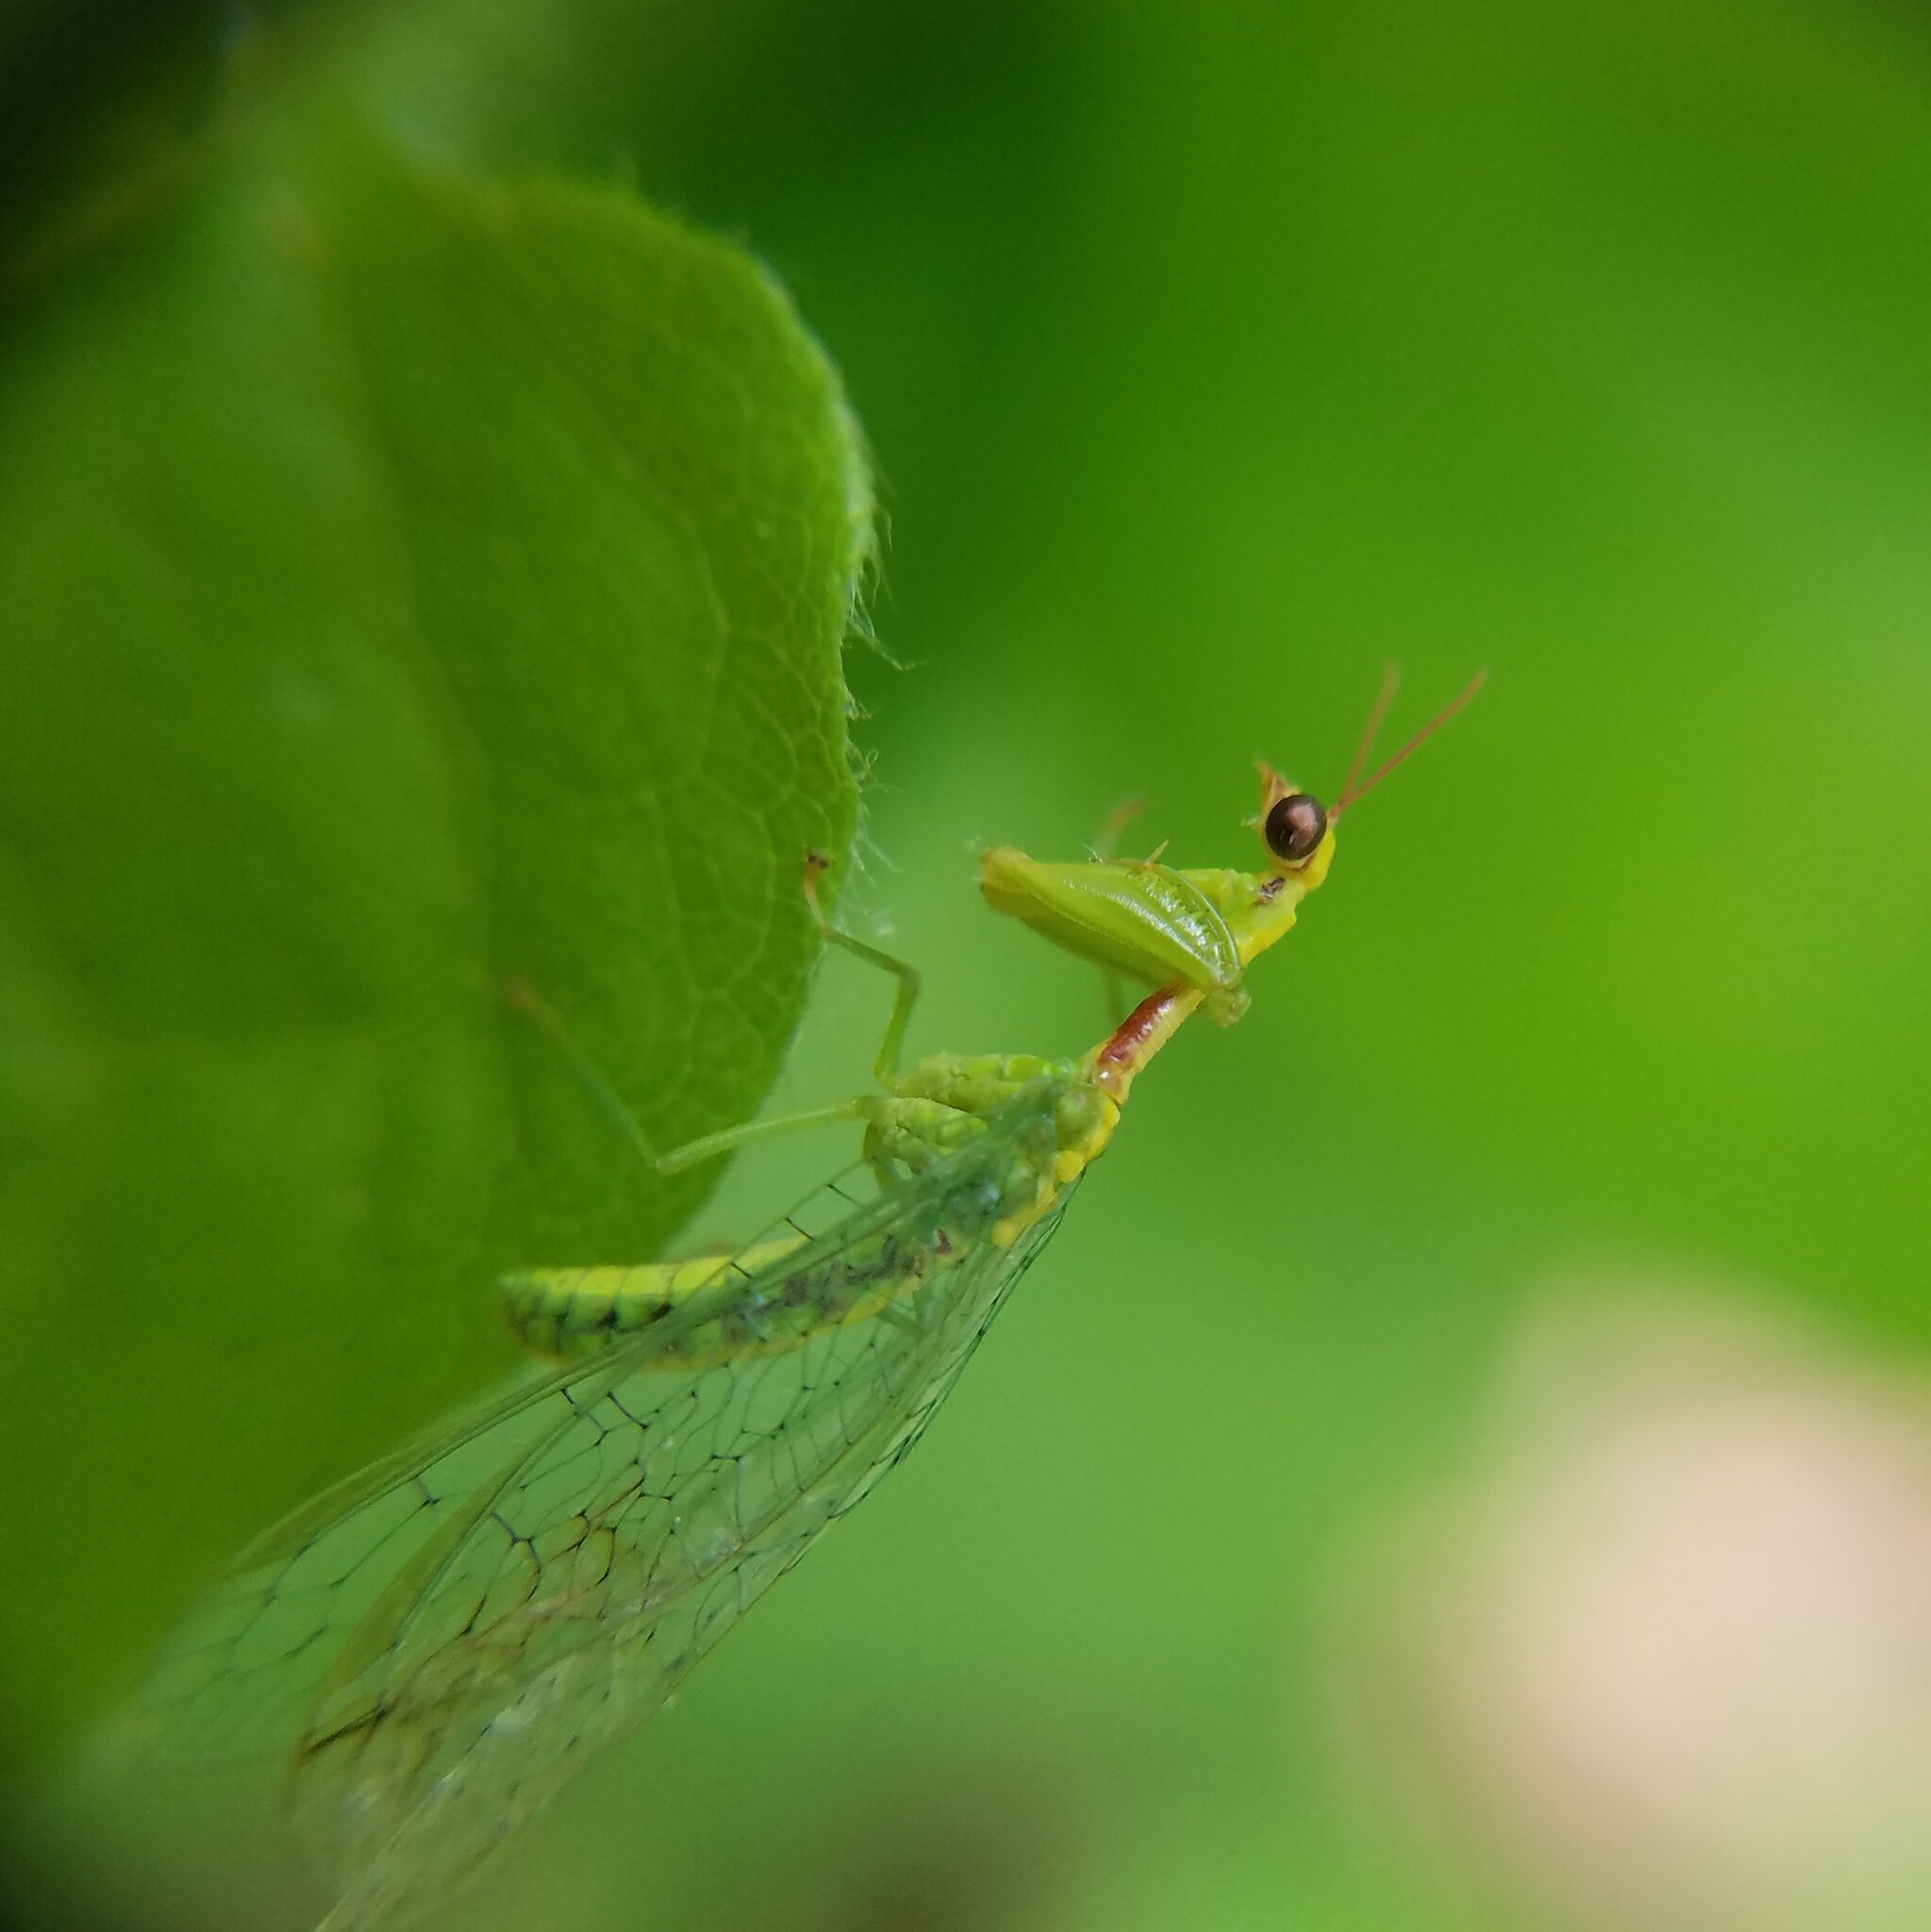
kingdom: Animalia
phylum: Arthropoda
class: Insecta
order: Neuroptera
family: Mantispidae
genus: Zeugomantispa
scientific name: Zeugomantispa minuta
